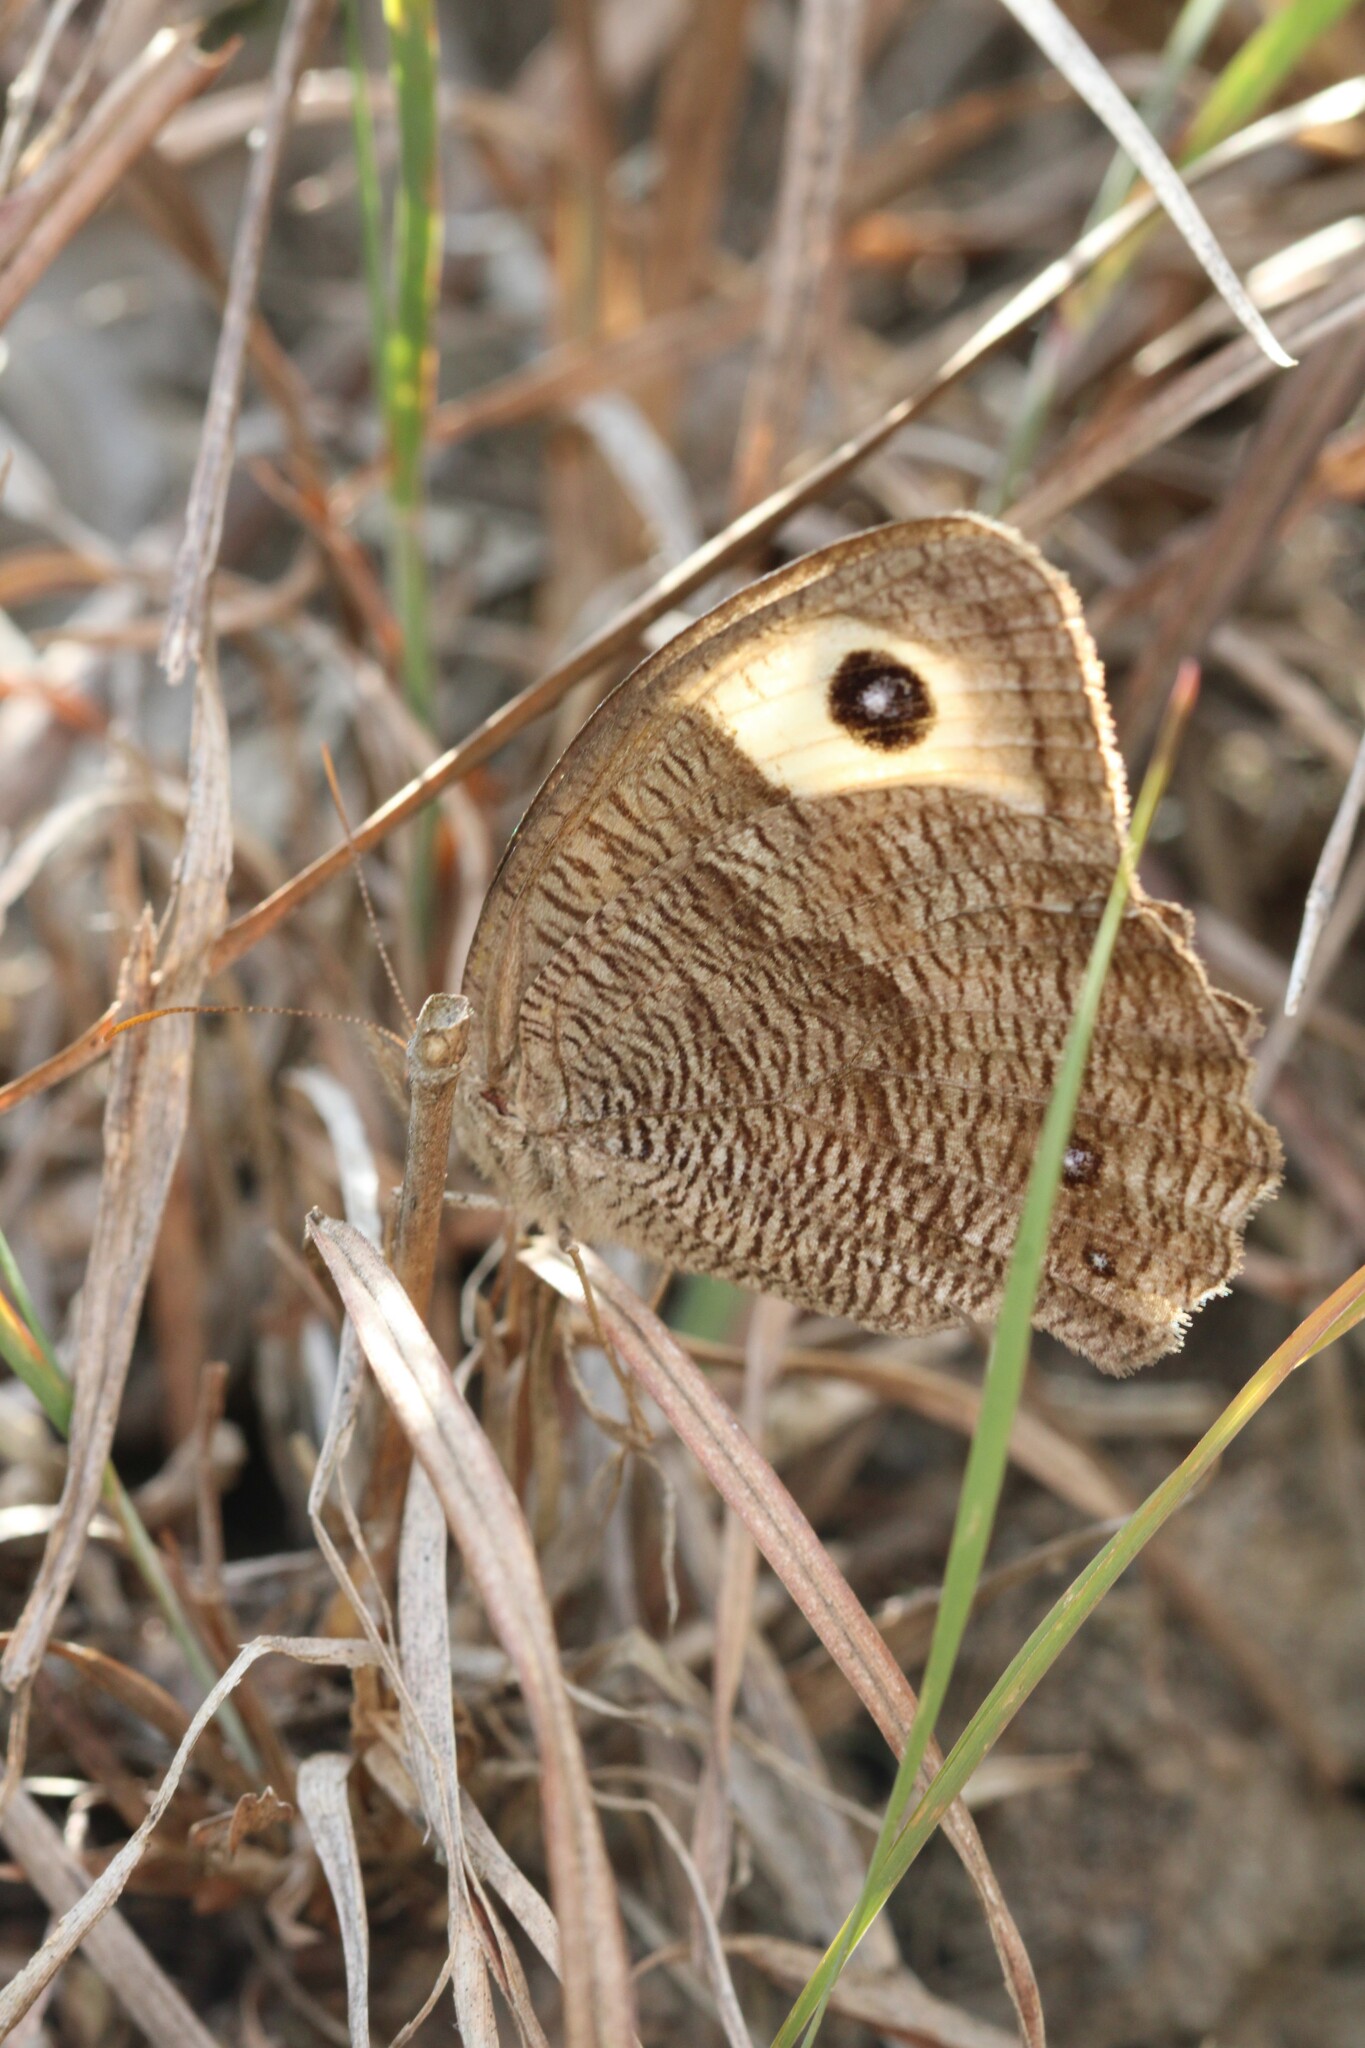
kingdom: Animalia
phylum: Arthropoda
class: Insecta
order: Lepidoptera
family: Nymphalidae
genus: Cercyonis
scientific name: Cercyonis pegala
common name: Common wood-nymph
